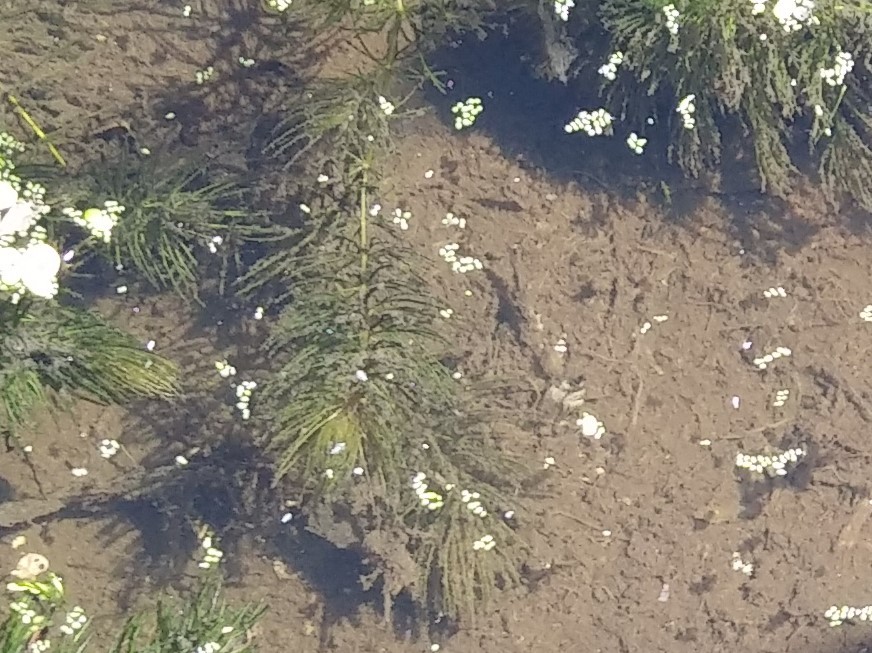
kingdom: Plantae
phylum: Tracheophyta
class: Magnoliopsida
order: Ceratophyllales
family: Ceratophyllaceae
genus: Ceratophyllum
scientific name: Ceratophyllum demersum
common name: Rigid hornwort
